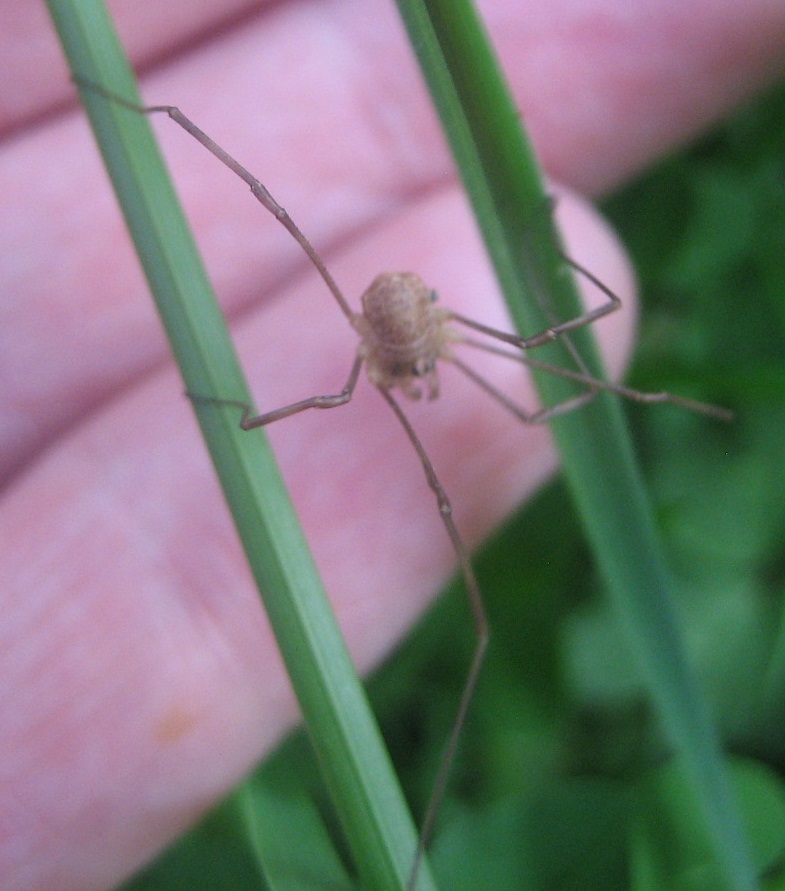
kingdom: Animalia
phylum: Arthropoda
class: Arachnida
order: Opiliones
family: Phalangiidae
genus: Rilaena
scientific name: Rilaena triangularis
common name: Spring harvestman
